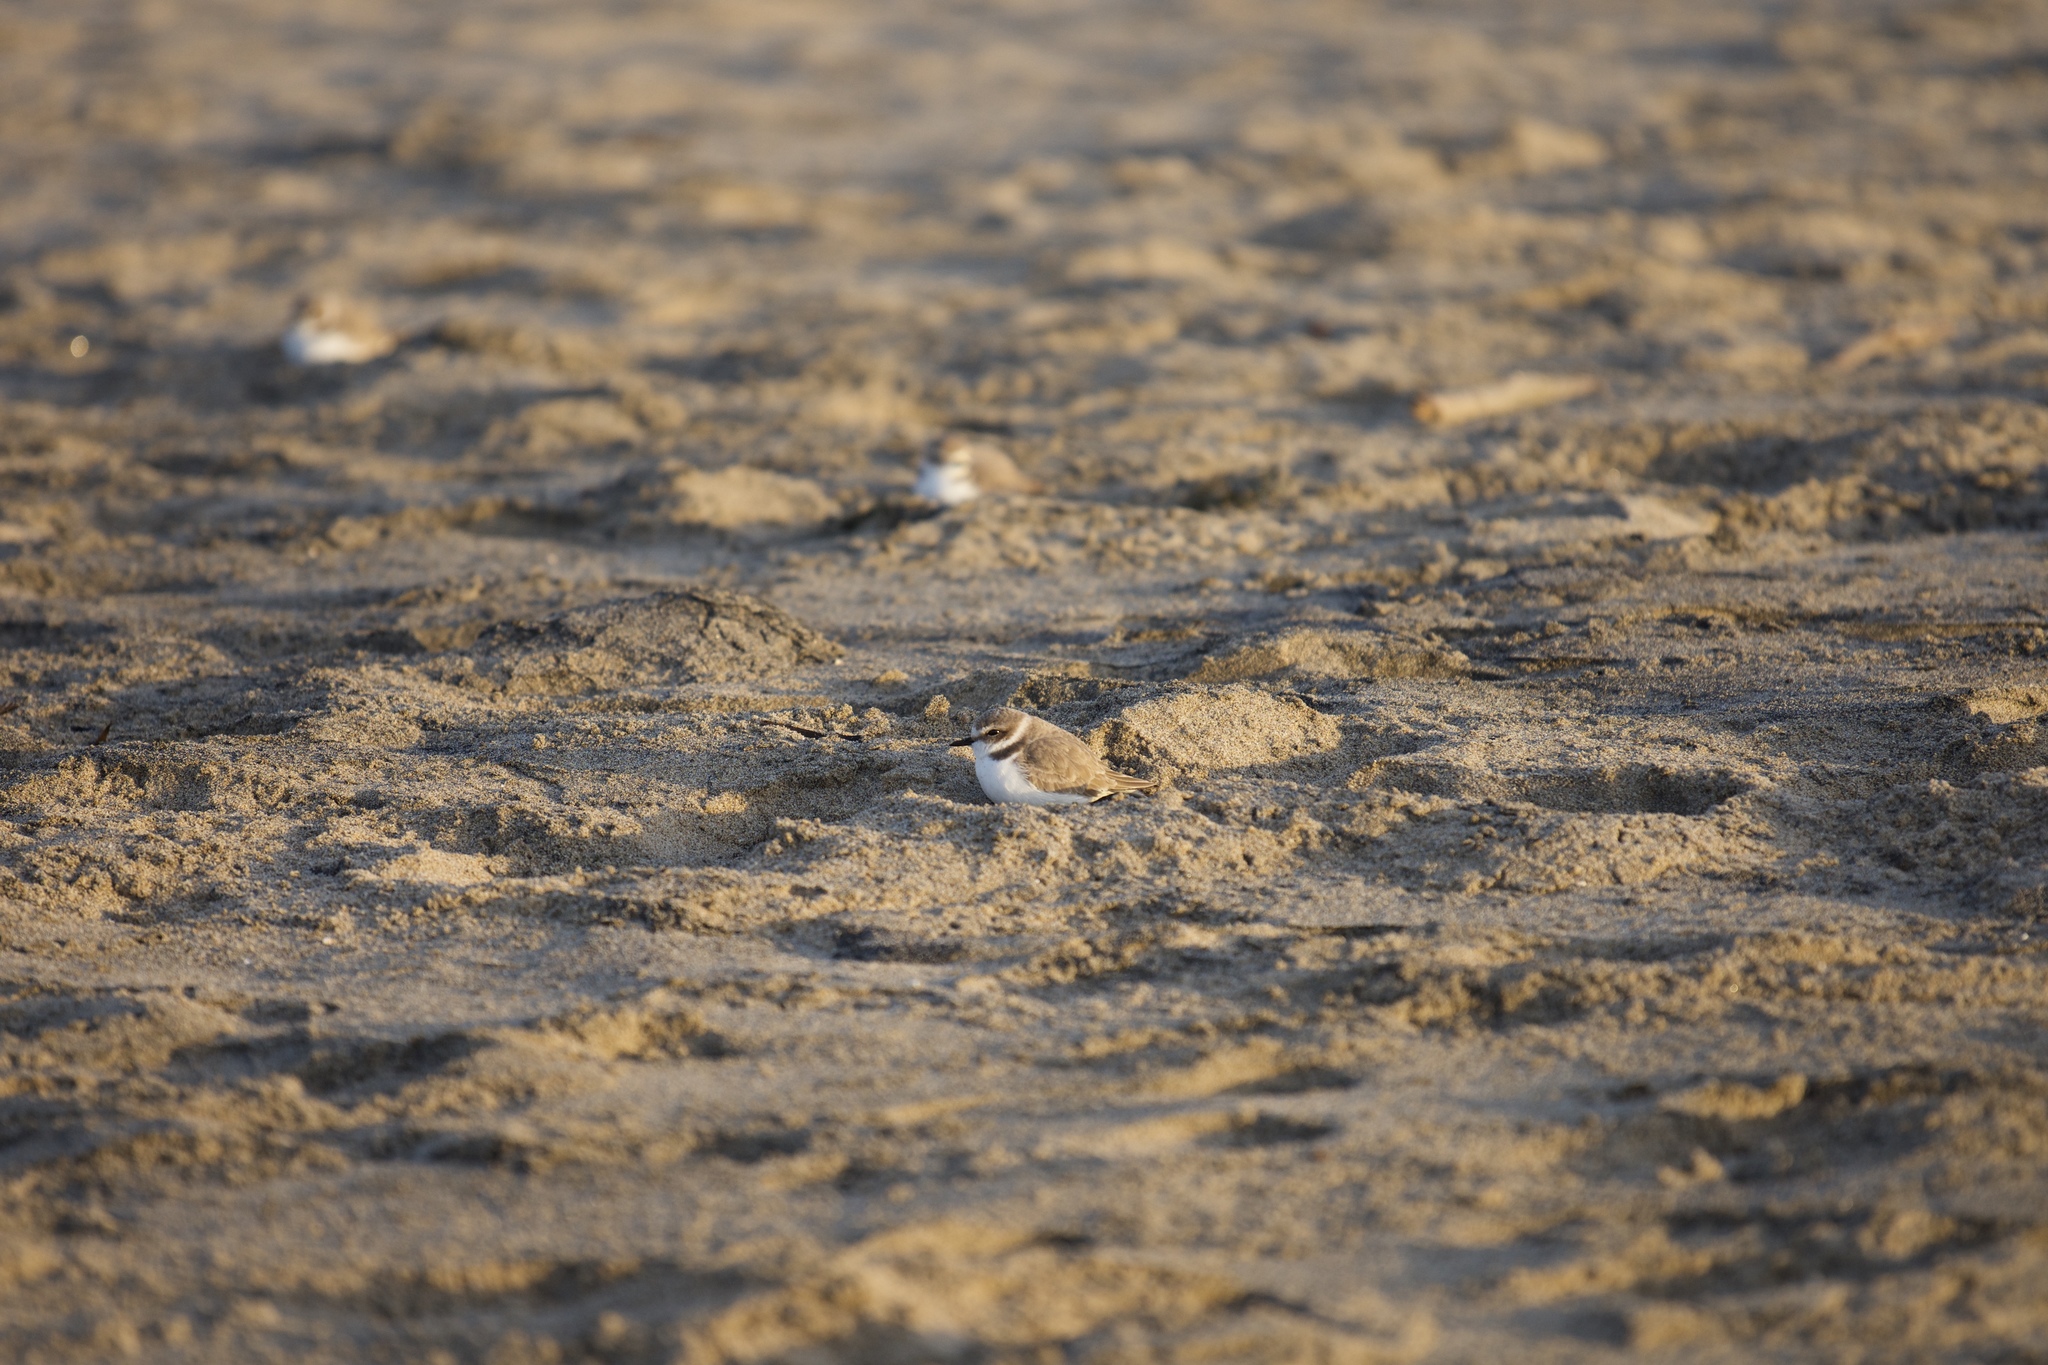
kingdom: Animalia
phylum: Chordata
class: Aves
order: Charadriiformes
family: Charadriidae
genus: Anarhynchus
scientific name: Anarhynchus
